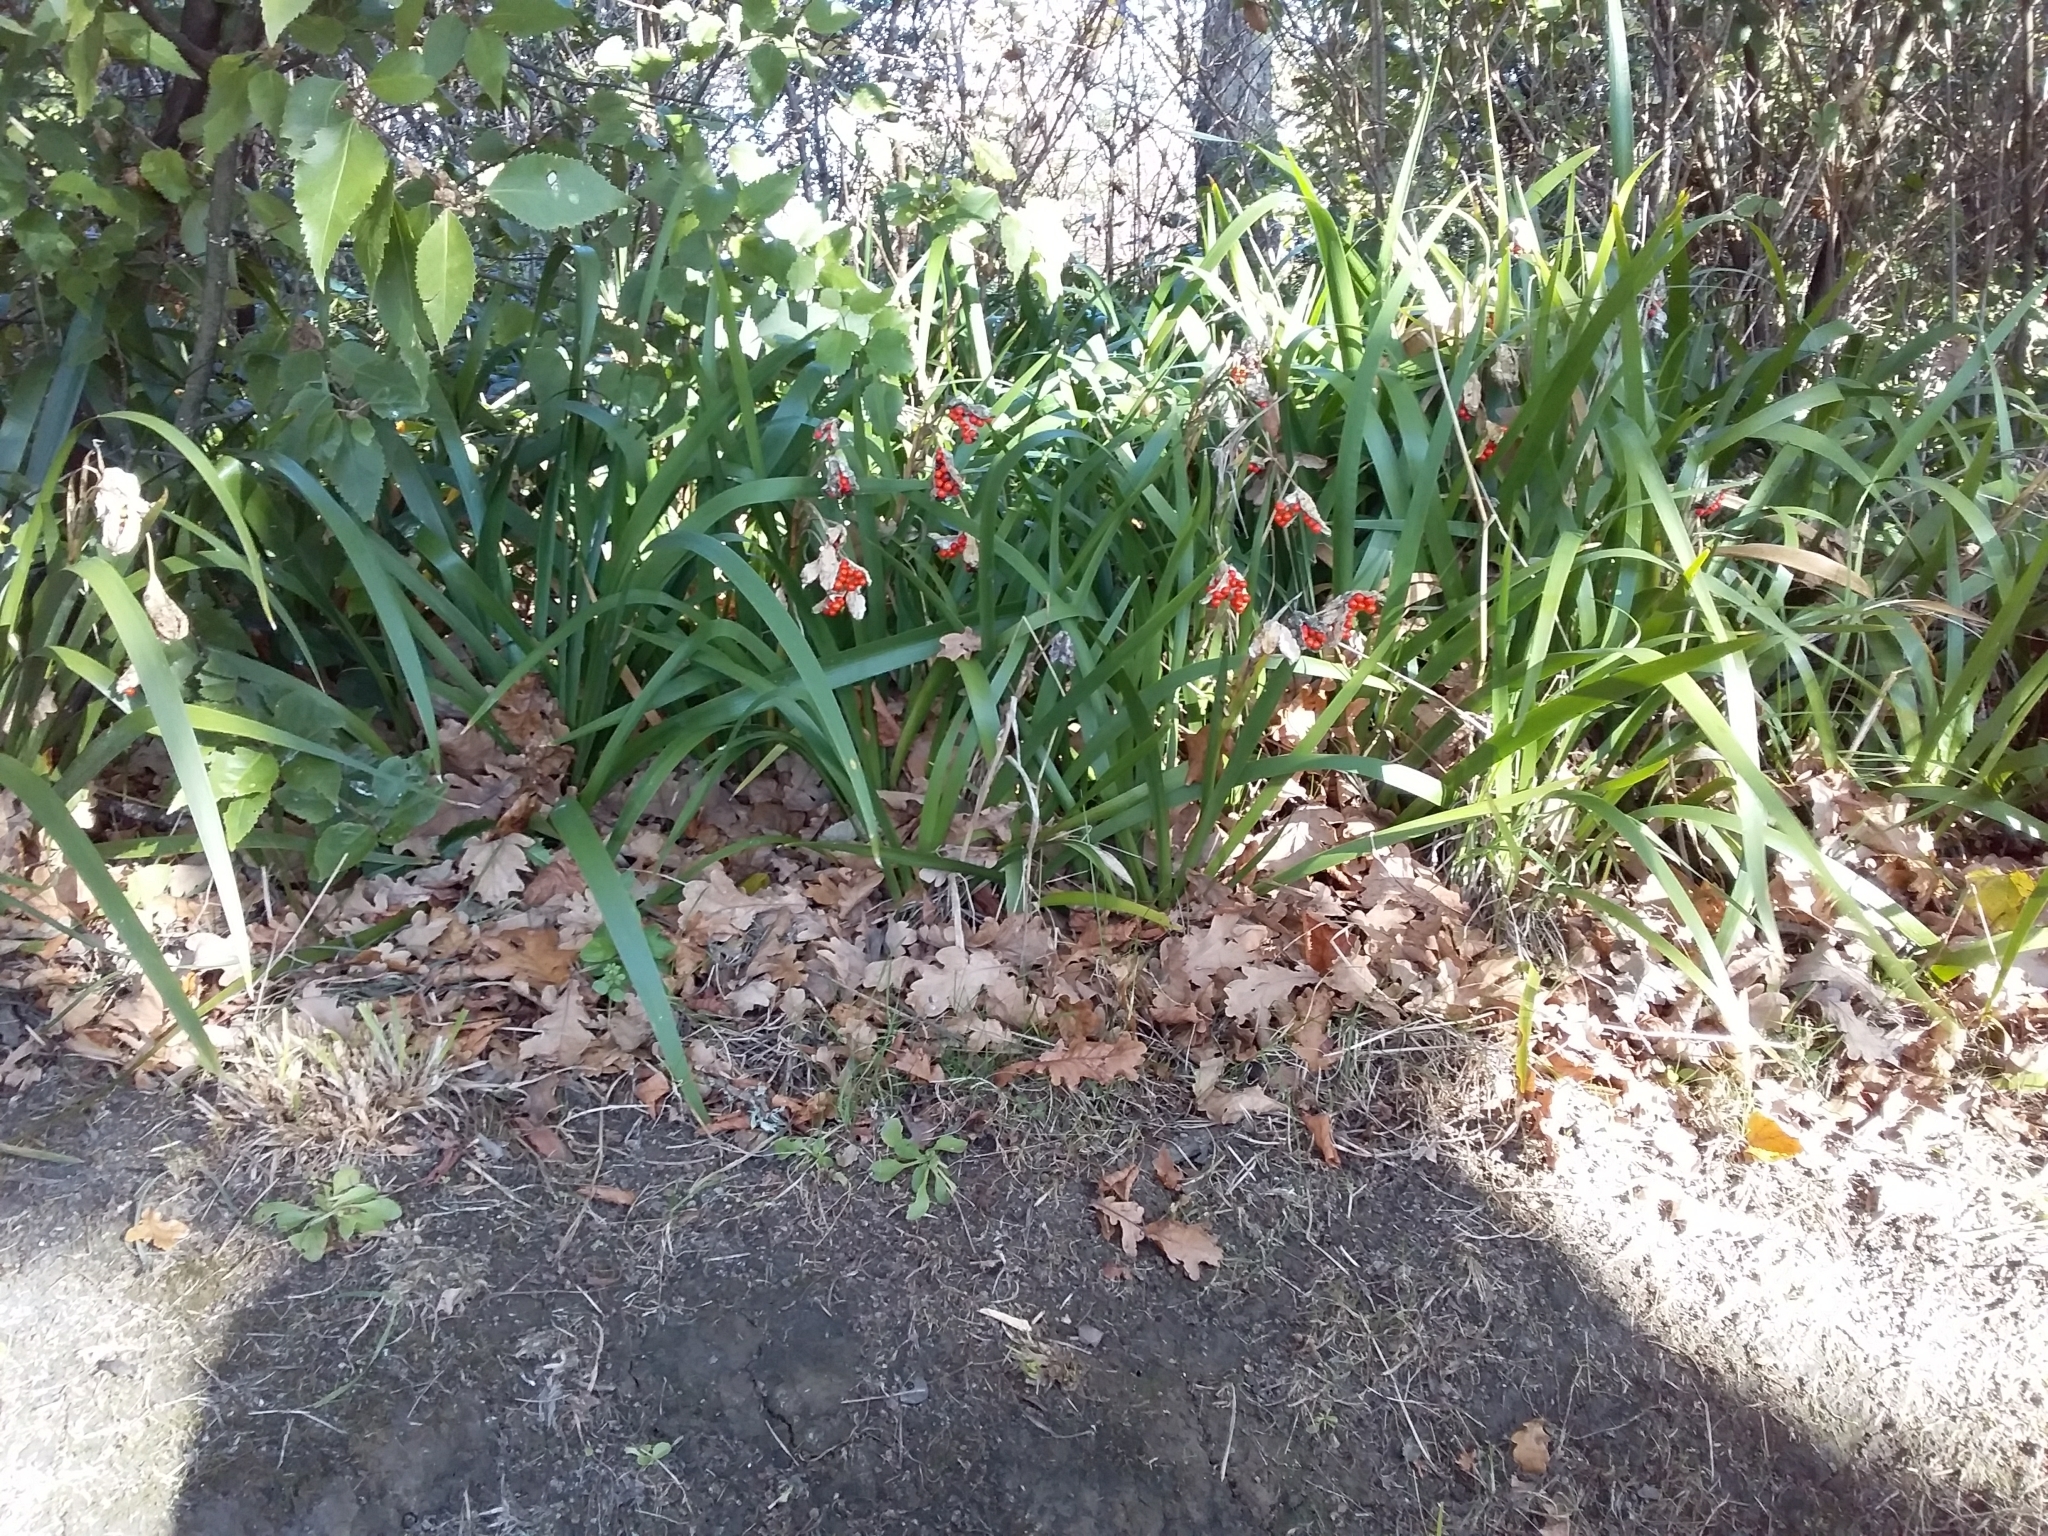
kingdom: Plantae
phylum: Tracheophyta
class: Liliopsida
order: Asparagales
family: Iridaceae
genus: Iris
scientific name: Iris foetidissima
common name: Stinking iris
